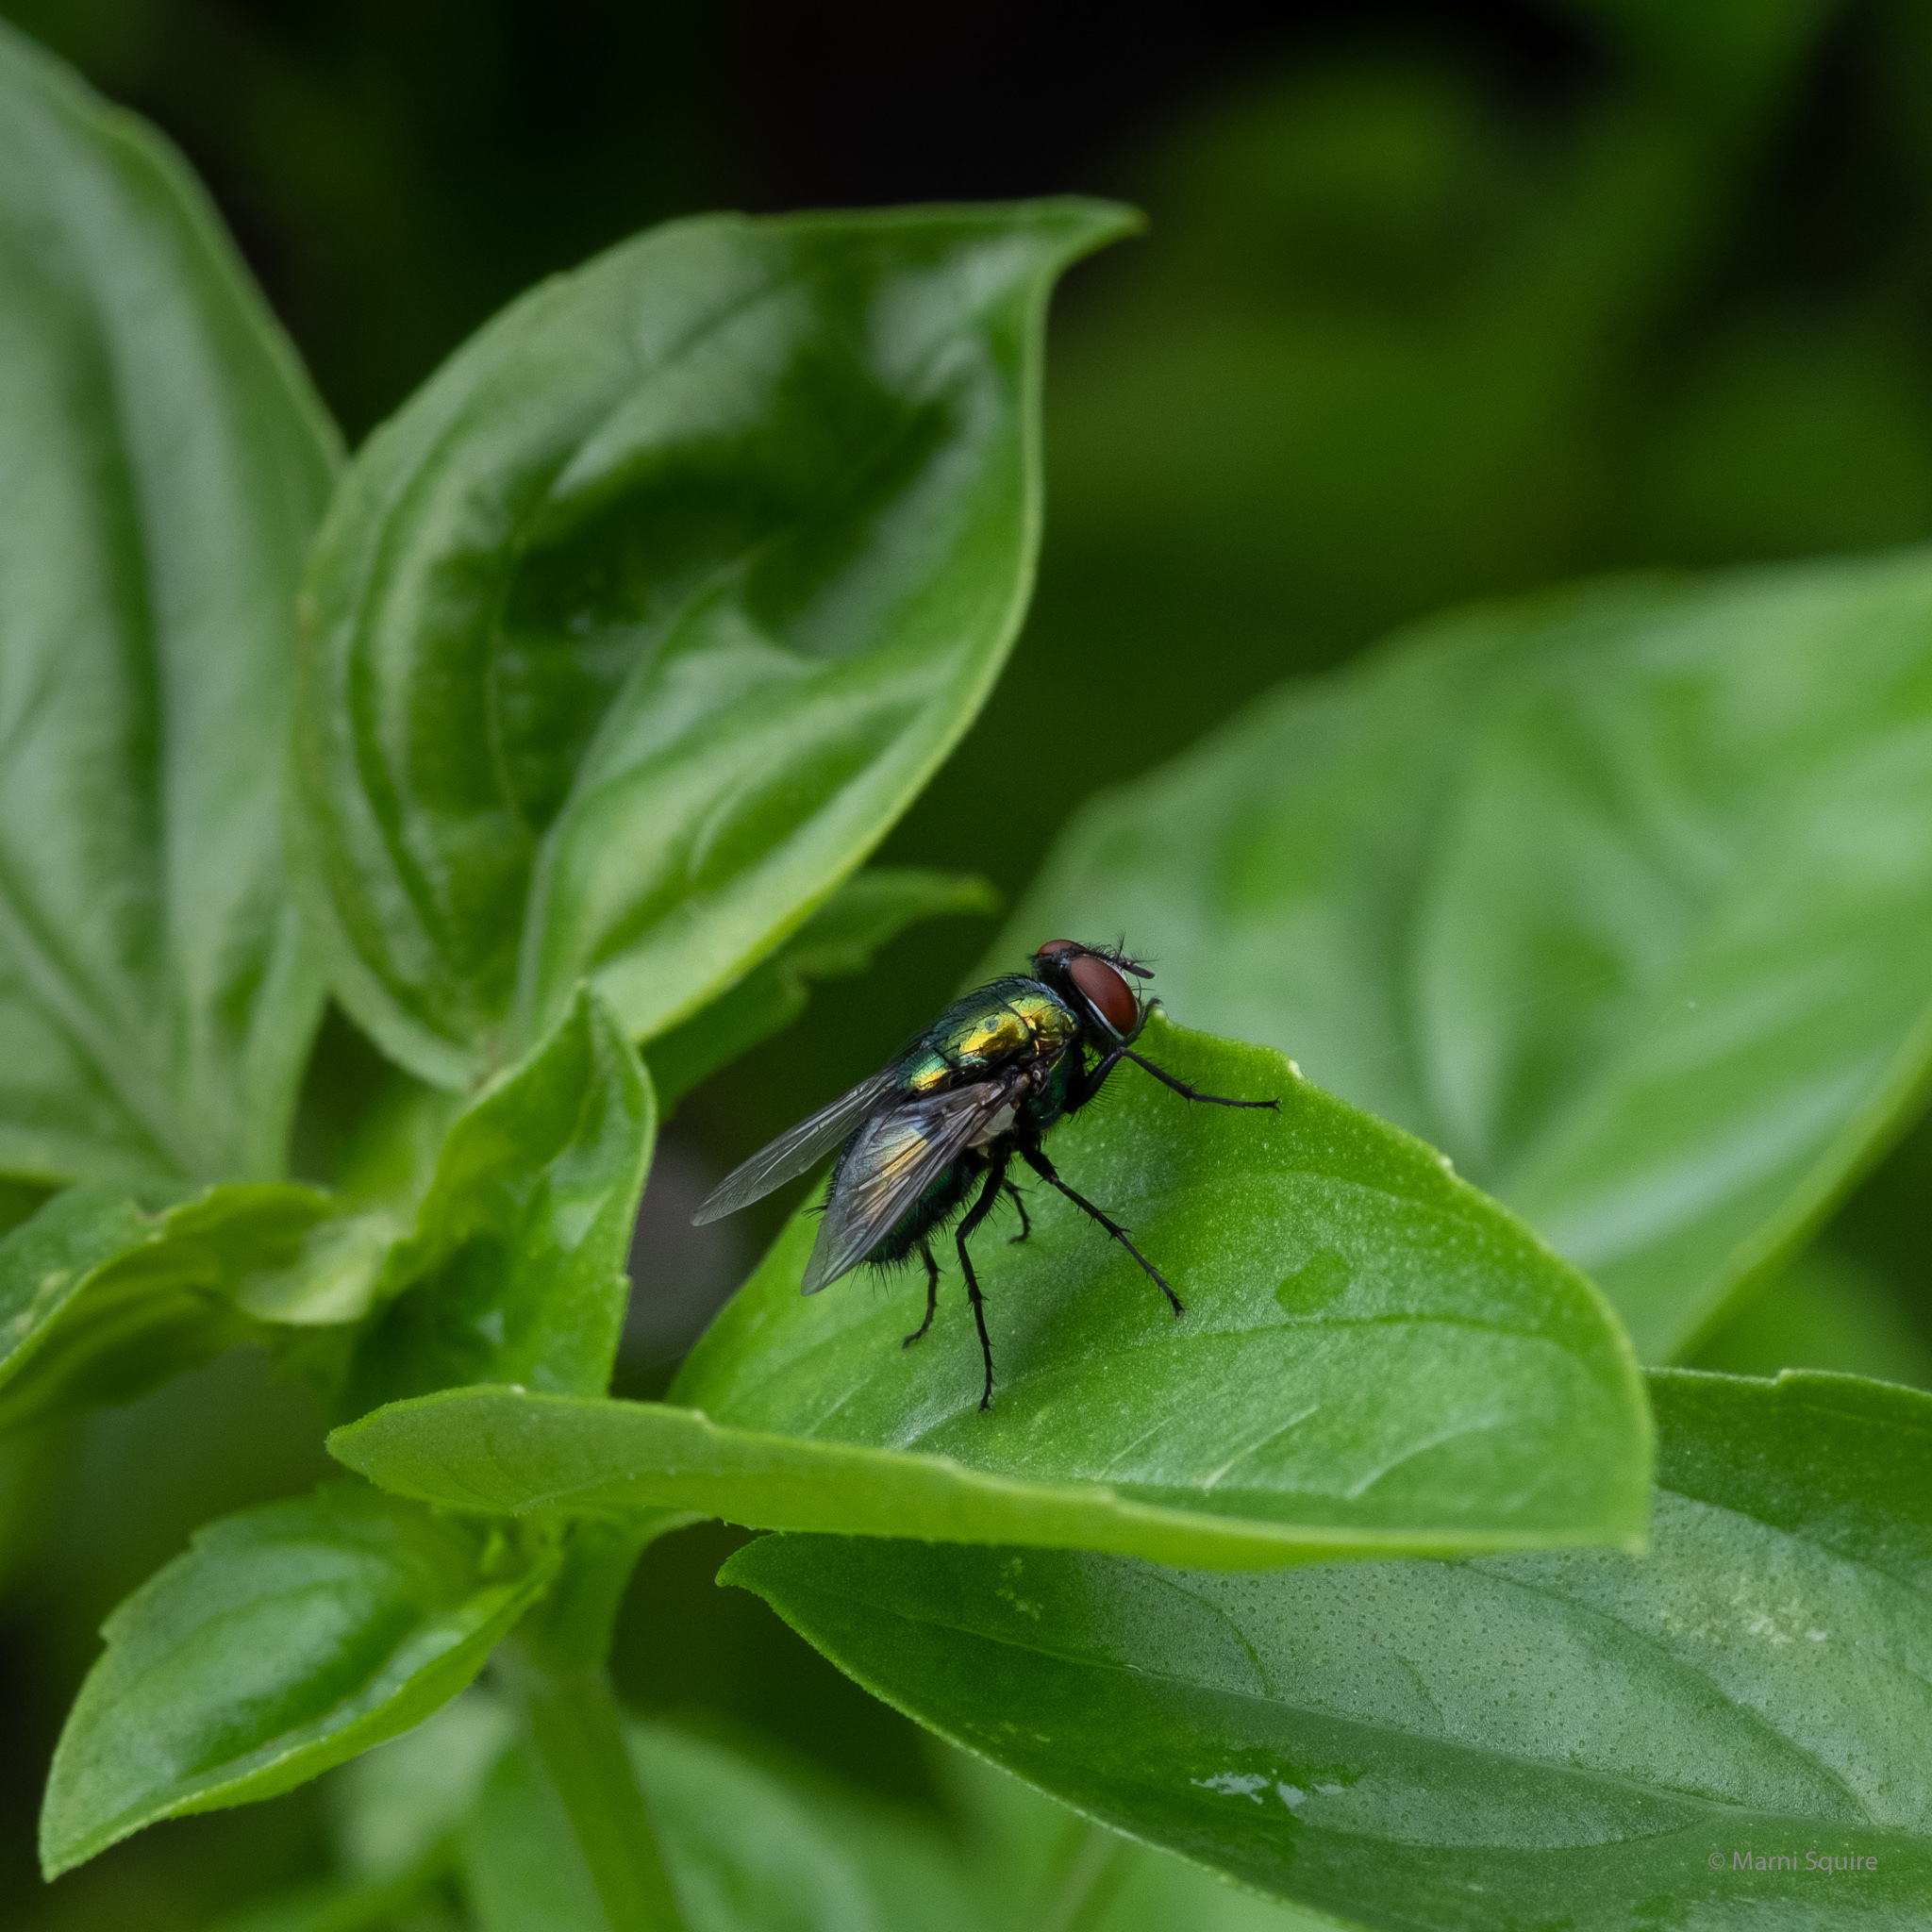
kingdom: Animalia
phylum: Arthropoda
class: Insecta
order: Diptera
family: Calliphoridae
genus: Lucilia
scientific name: Lucilia sericata
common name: Blow fly
